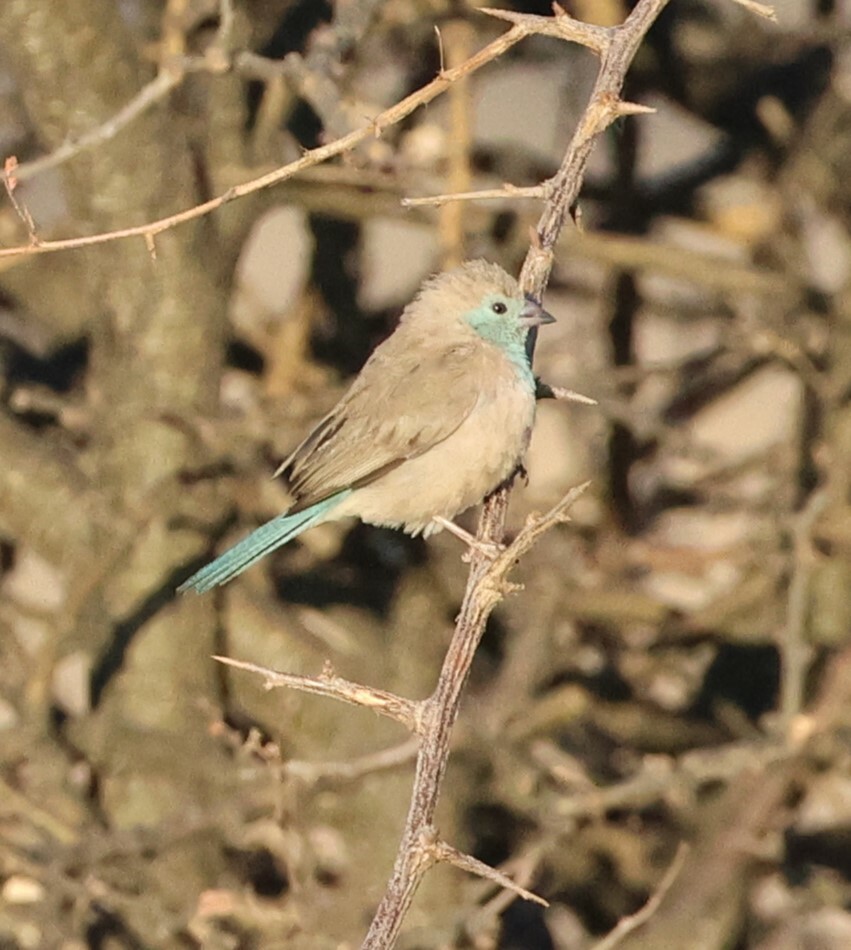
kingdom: Animalia
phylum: Chordata
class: Aves
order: Passeriformes
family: Estrildidae
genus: Uraeginthus
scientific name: Uraeginthus angolensis
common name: Blue waxbill
